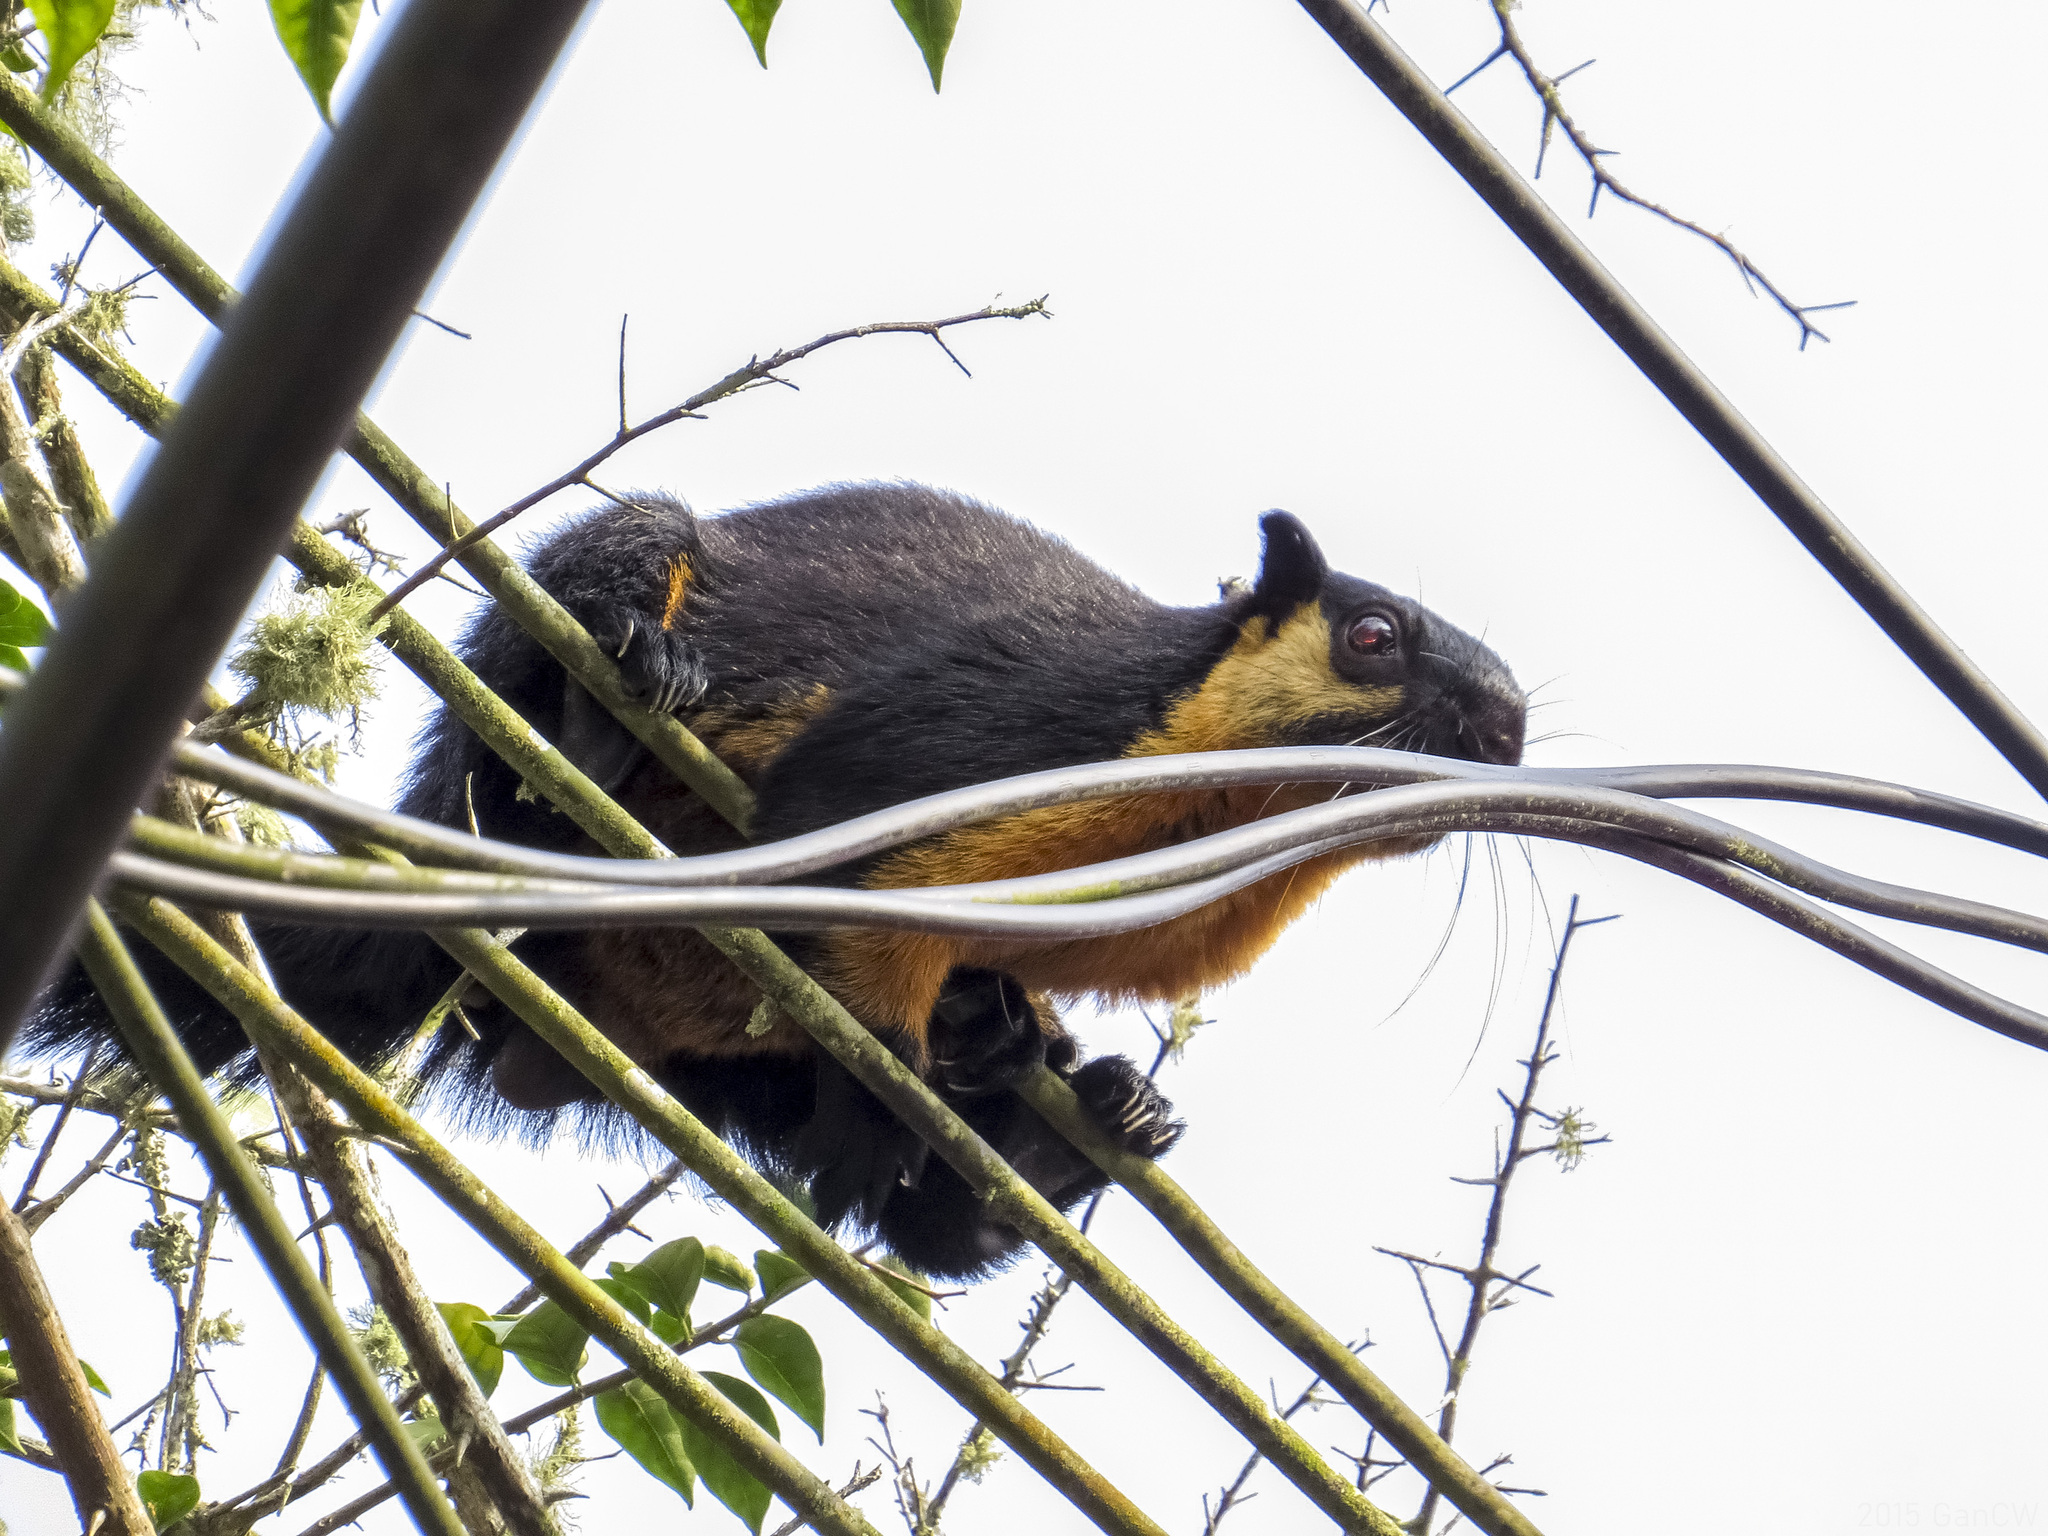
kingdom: Animalia
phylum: Chordata
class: Mammalia
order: Rodentia
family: Sciuridae
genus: Ratufa
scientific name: Ratufa bicolor
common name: Black giant squirrel
